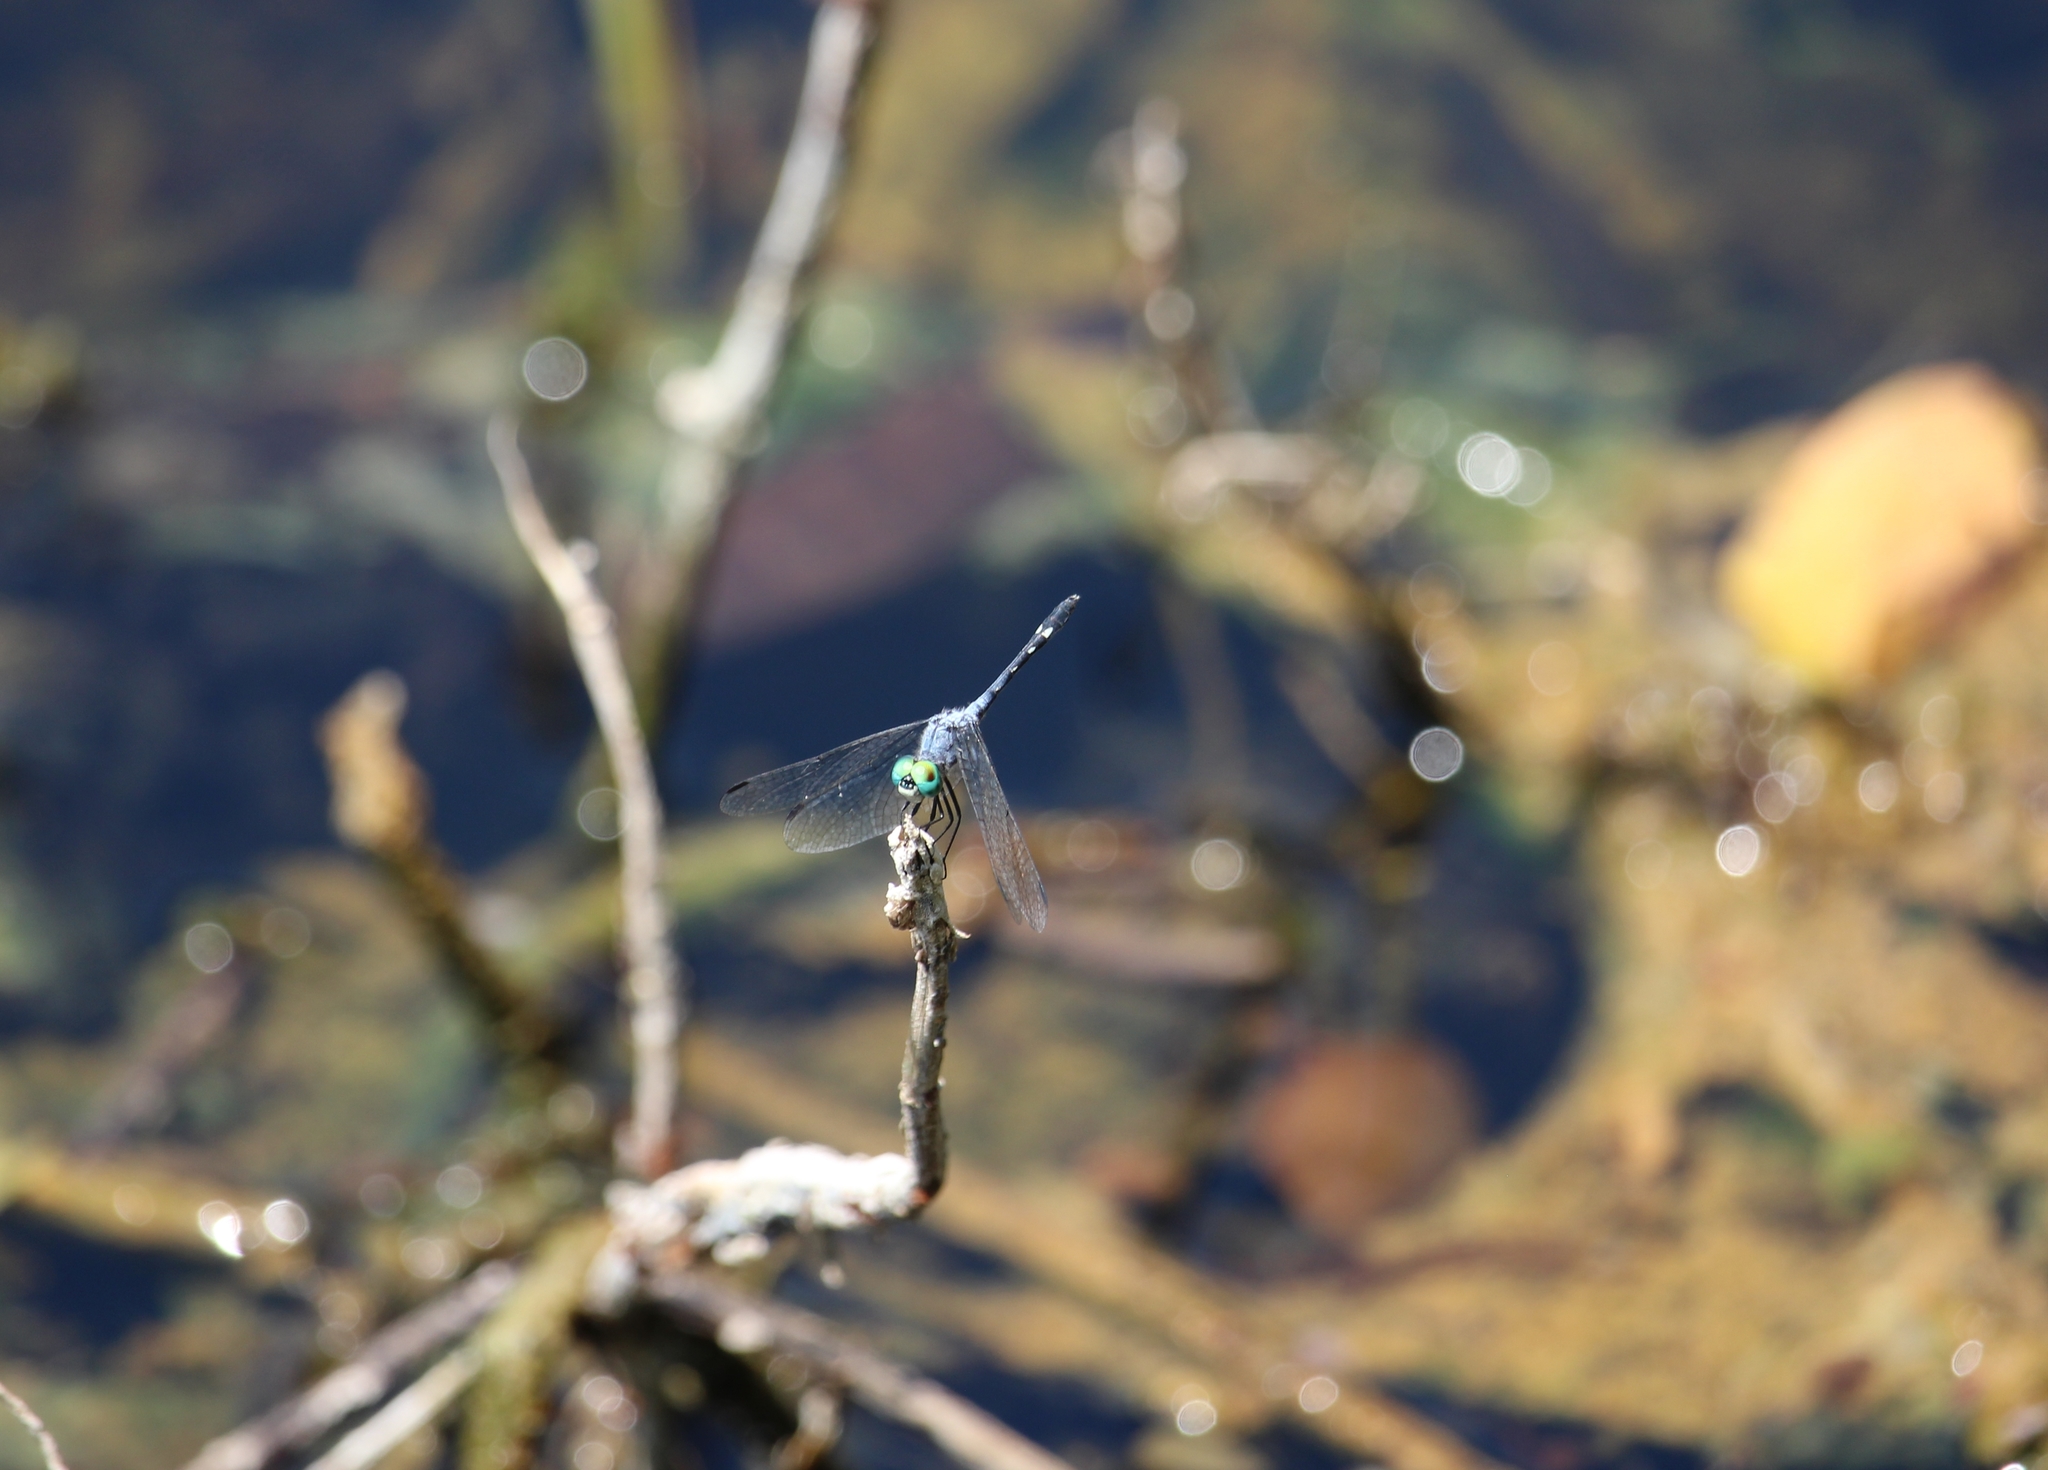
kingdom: Animalia
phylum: Arthropoda
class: Insecta
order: Odonata
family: Libellulidae
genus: Micrathyria
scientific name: Micrathyria debilis
